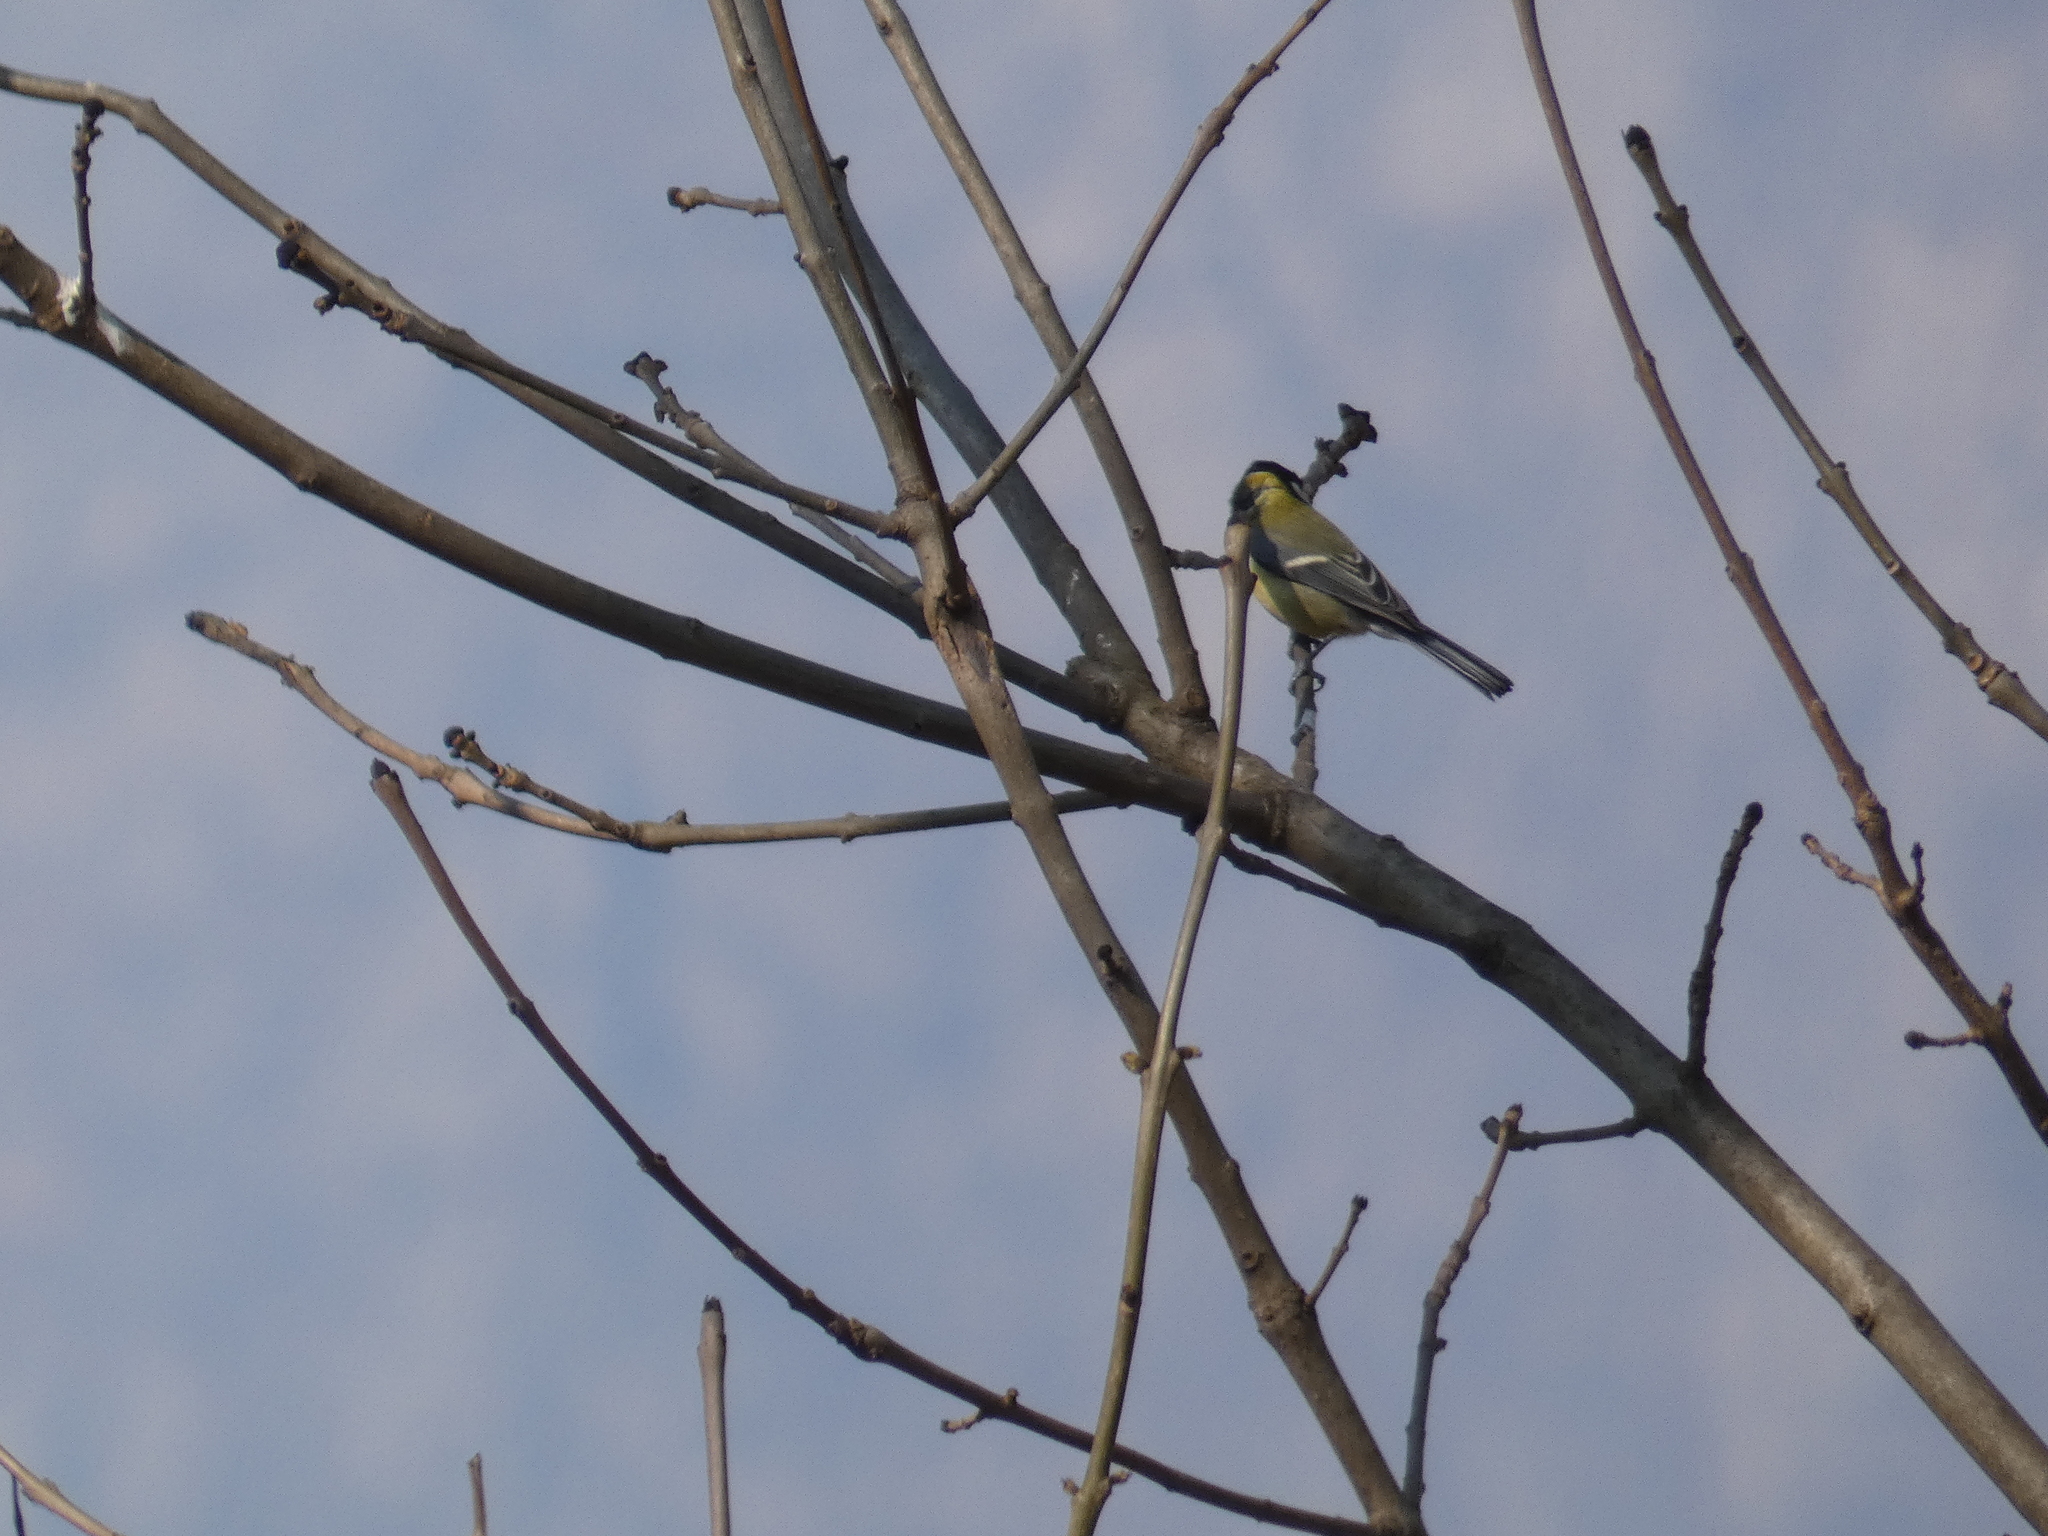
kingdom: Animalia
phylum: Chordata
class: Aves
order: Passeriformes
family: Paridae
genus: Parus
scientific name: Parus major
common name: Great tit
